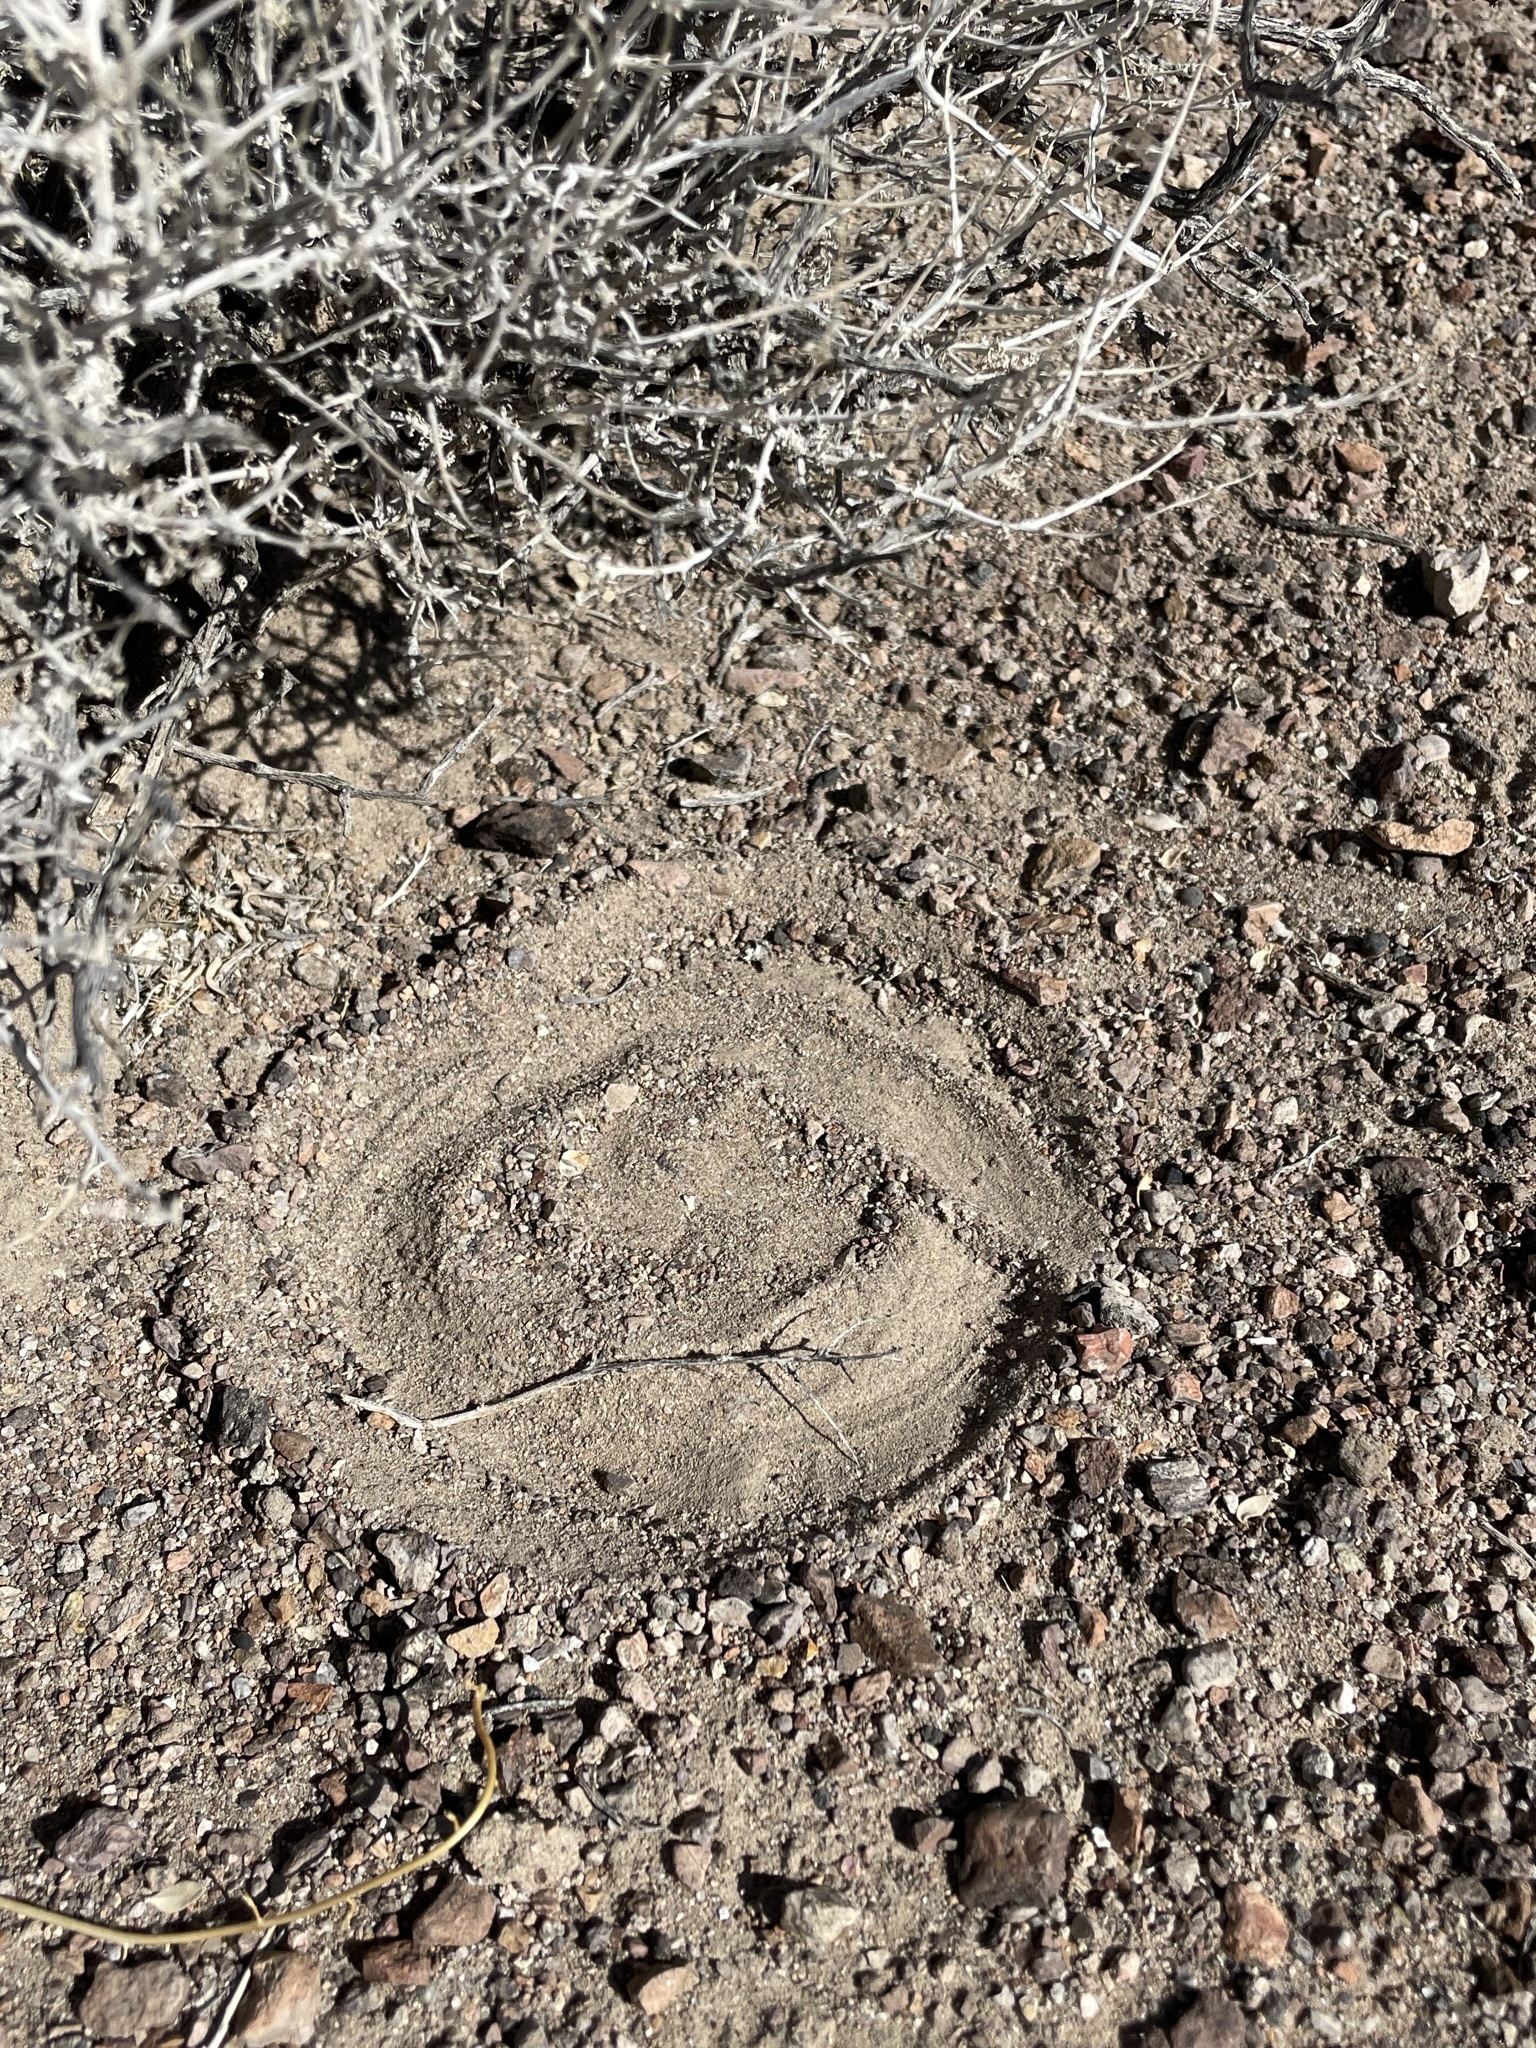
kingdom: Animalia
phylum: Chordata
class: Squamata
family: Viperidae
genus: Crotalus
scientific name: Crotalus cerastes
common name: Sidewinder
